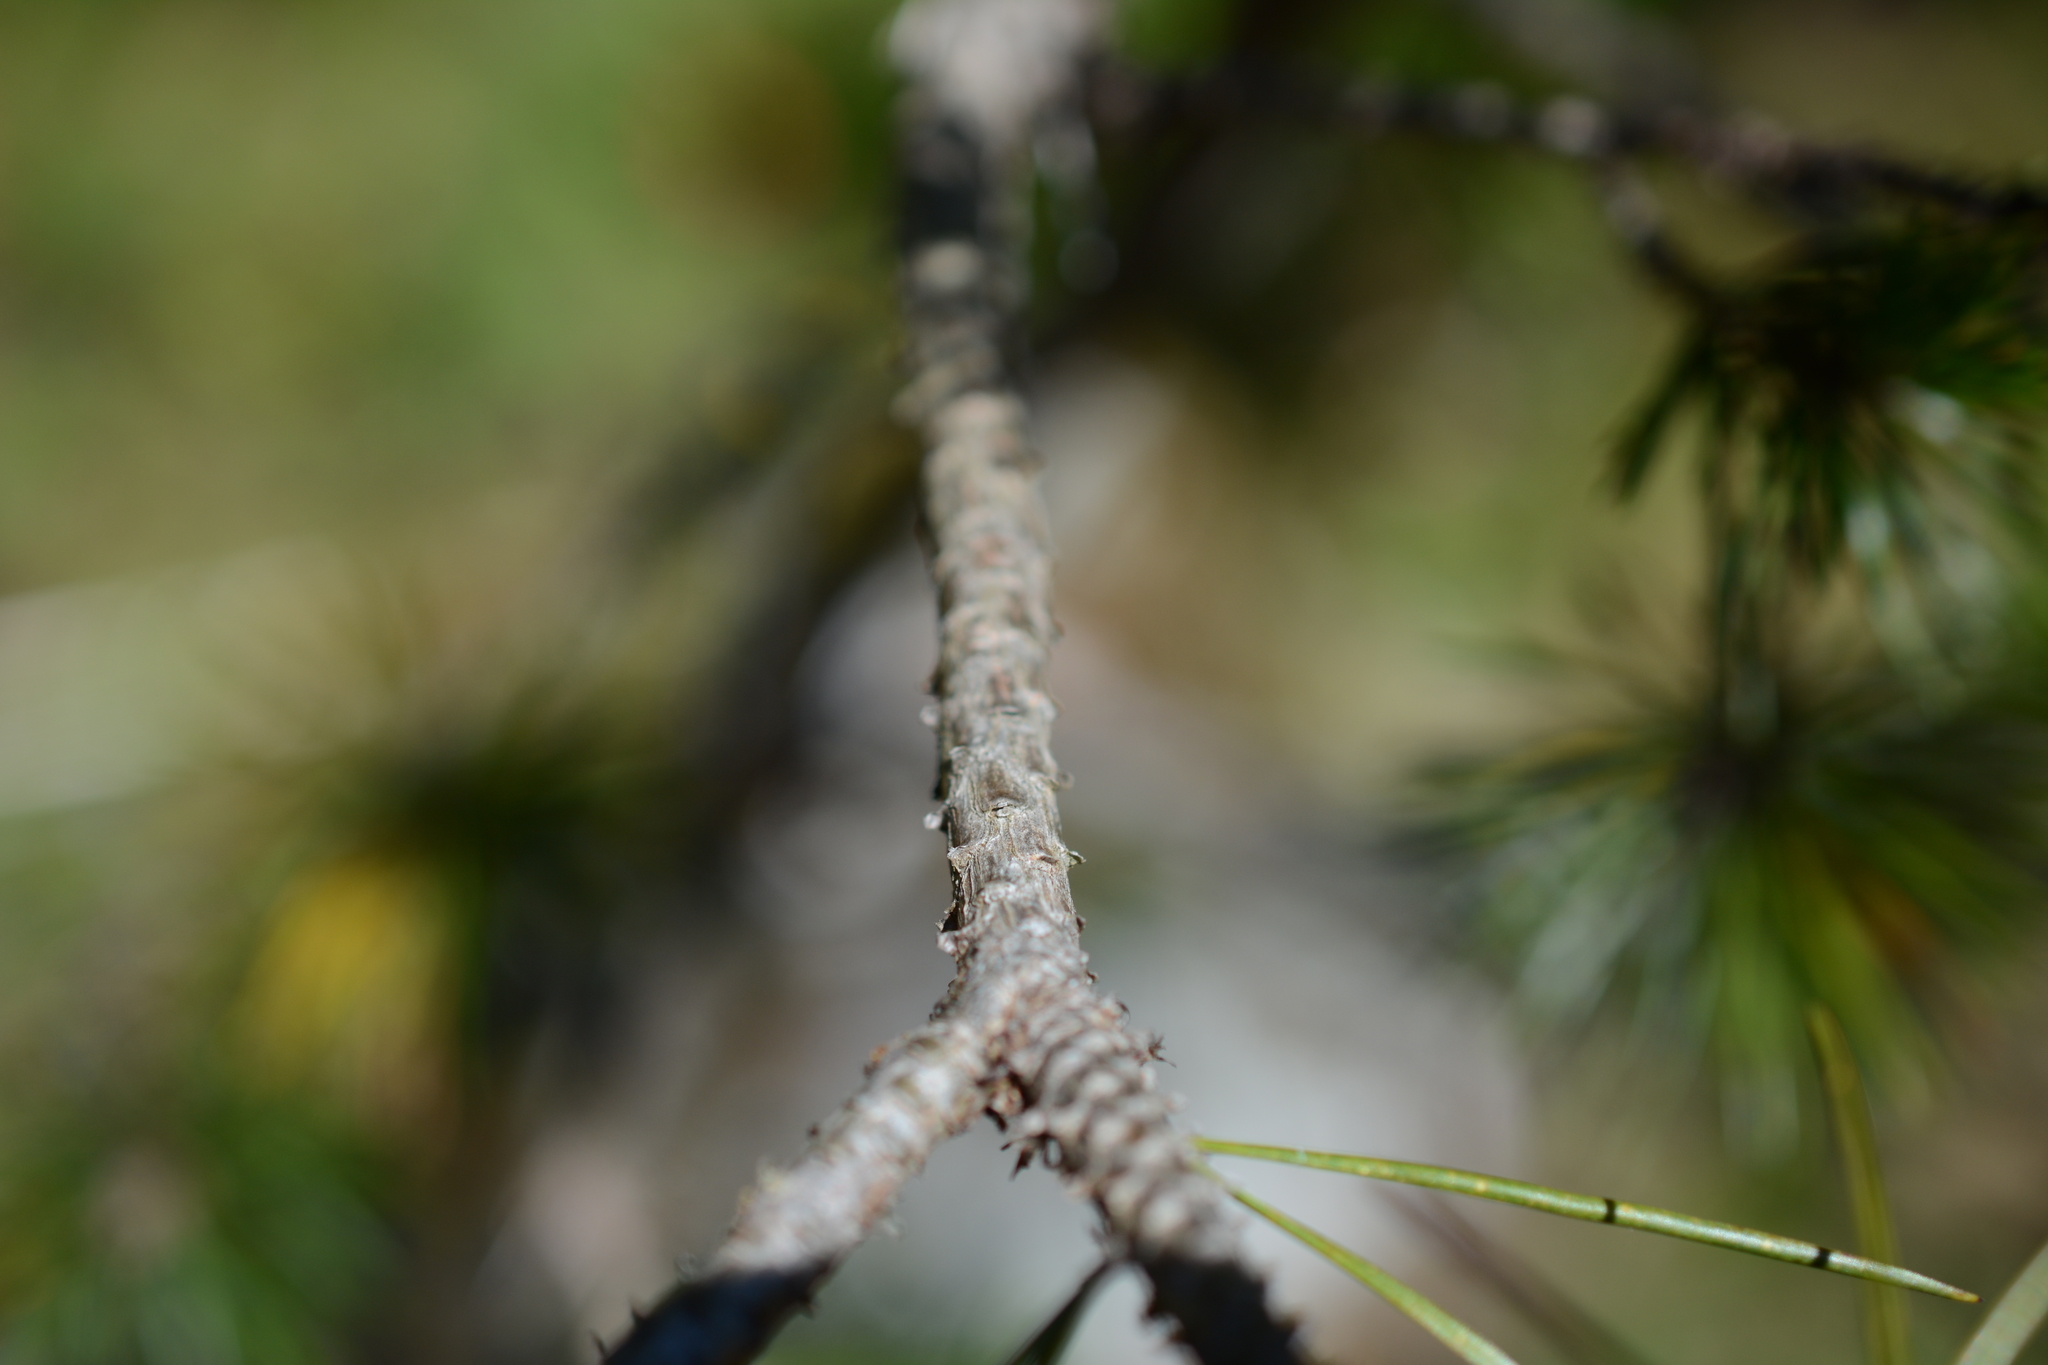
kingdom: Plantae
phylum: Tracheophyta
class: Pinopsida
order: Pinales
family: Pinaceae
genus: Pinus
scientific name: Pinus contorta
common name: Lodgepole pine
